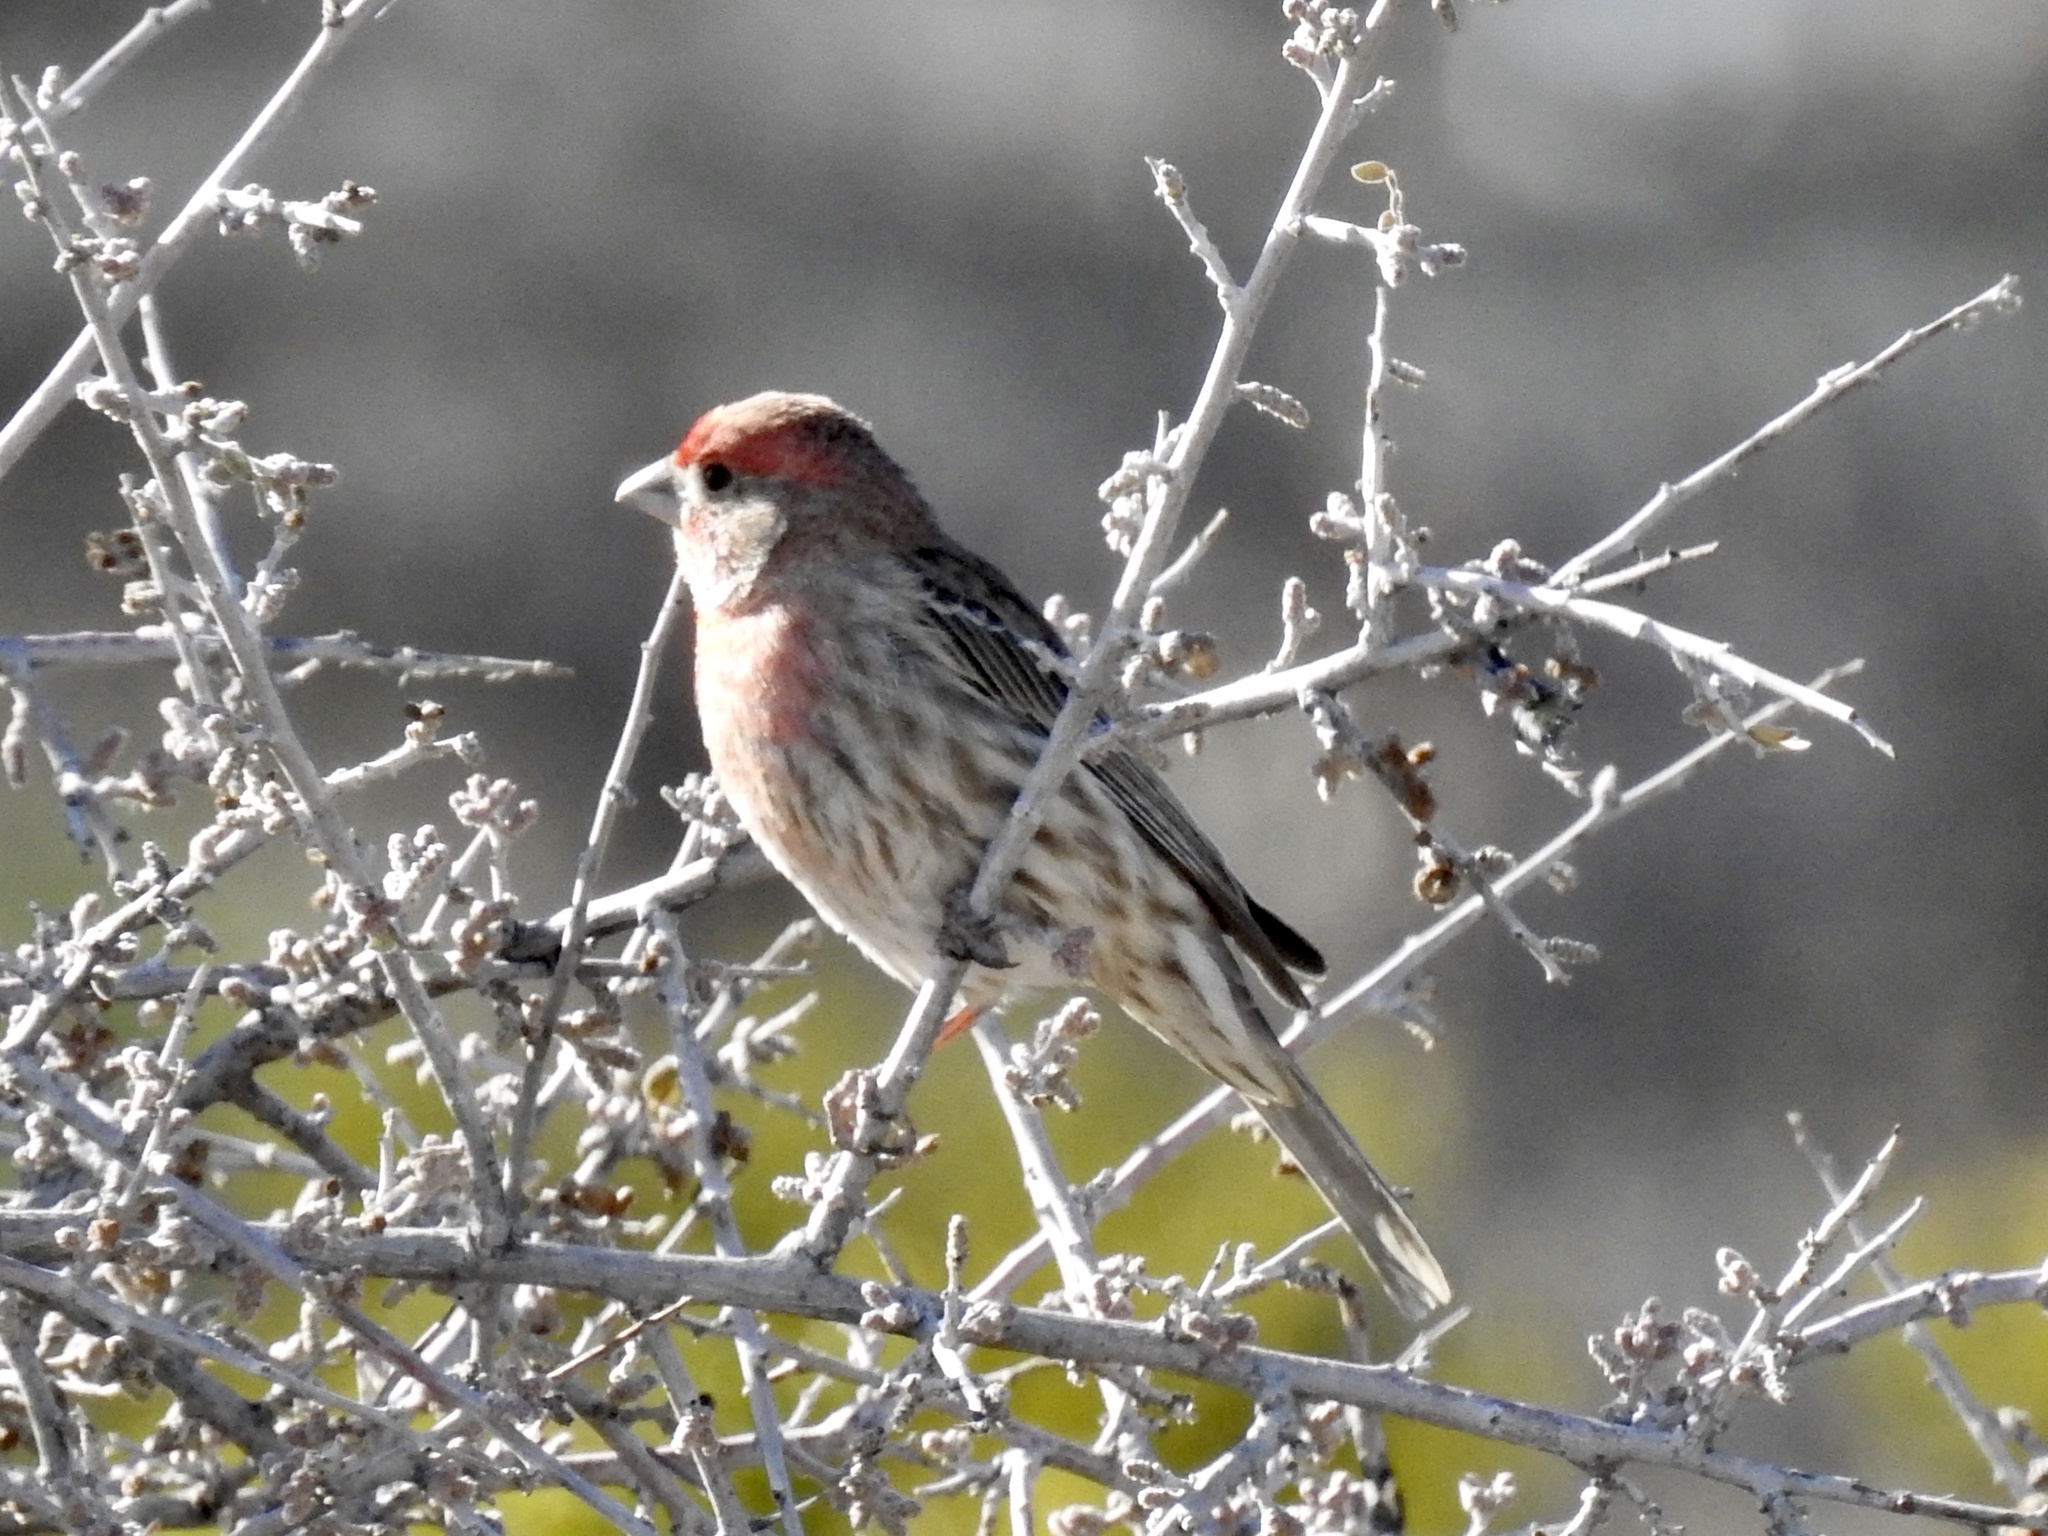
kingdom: Animalia
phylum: Chordata
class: Aves
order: Passeriformes
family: Fringillidae
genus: Haemorhous
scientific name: Haemorhous mexicanus
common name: House finch
